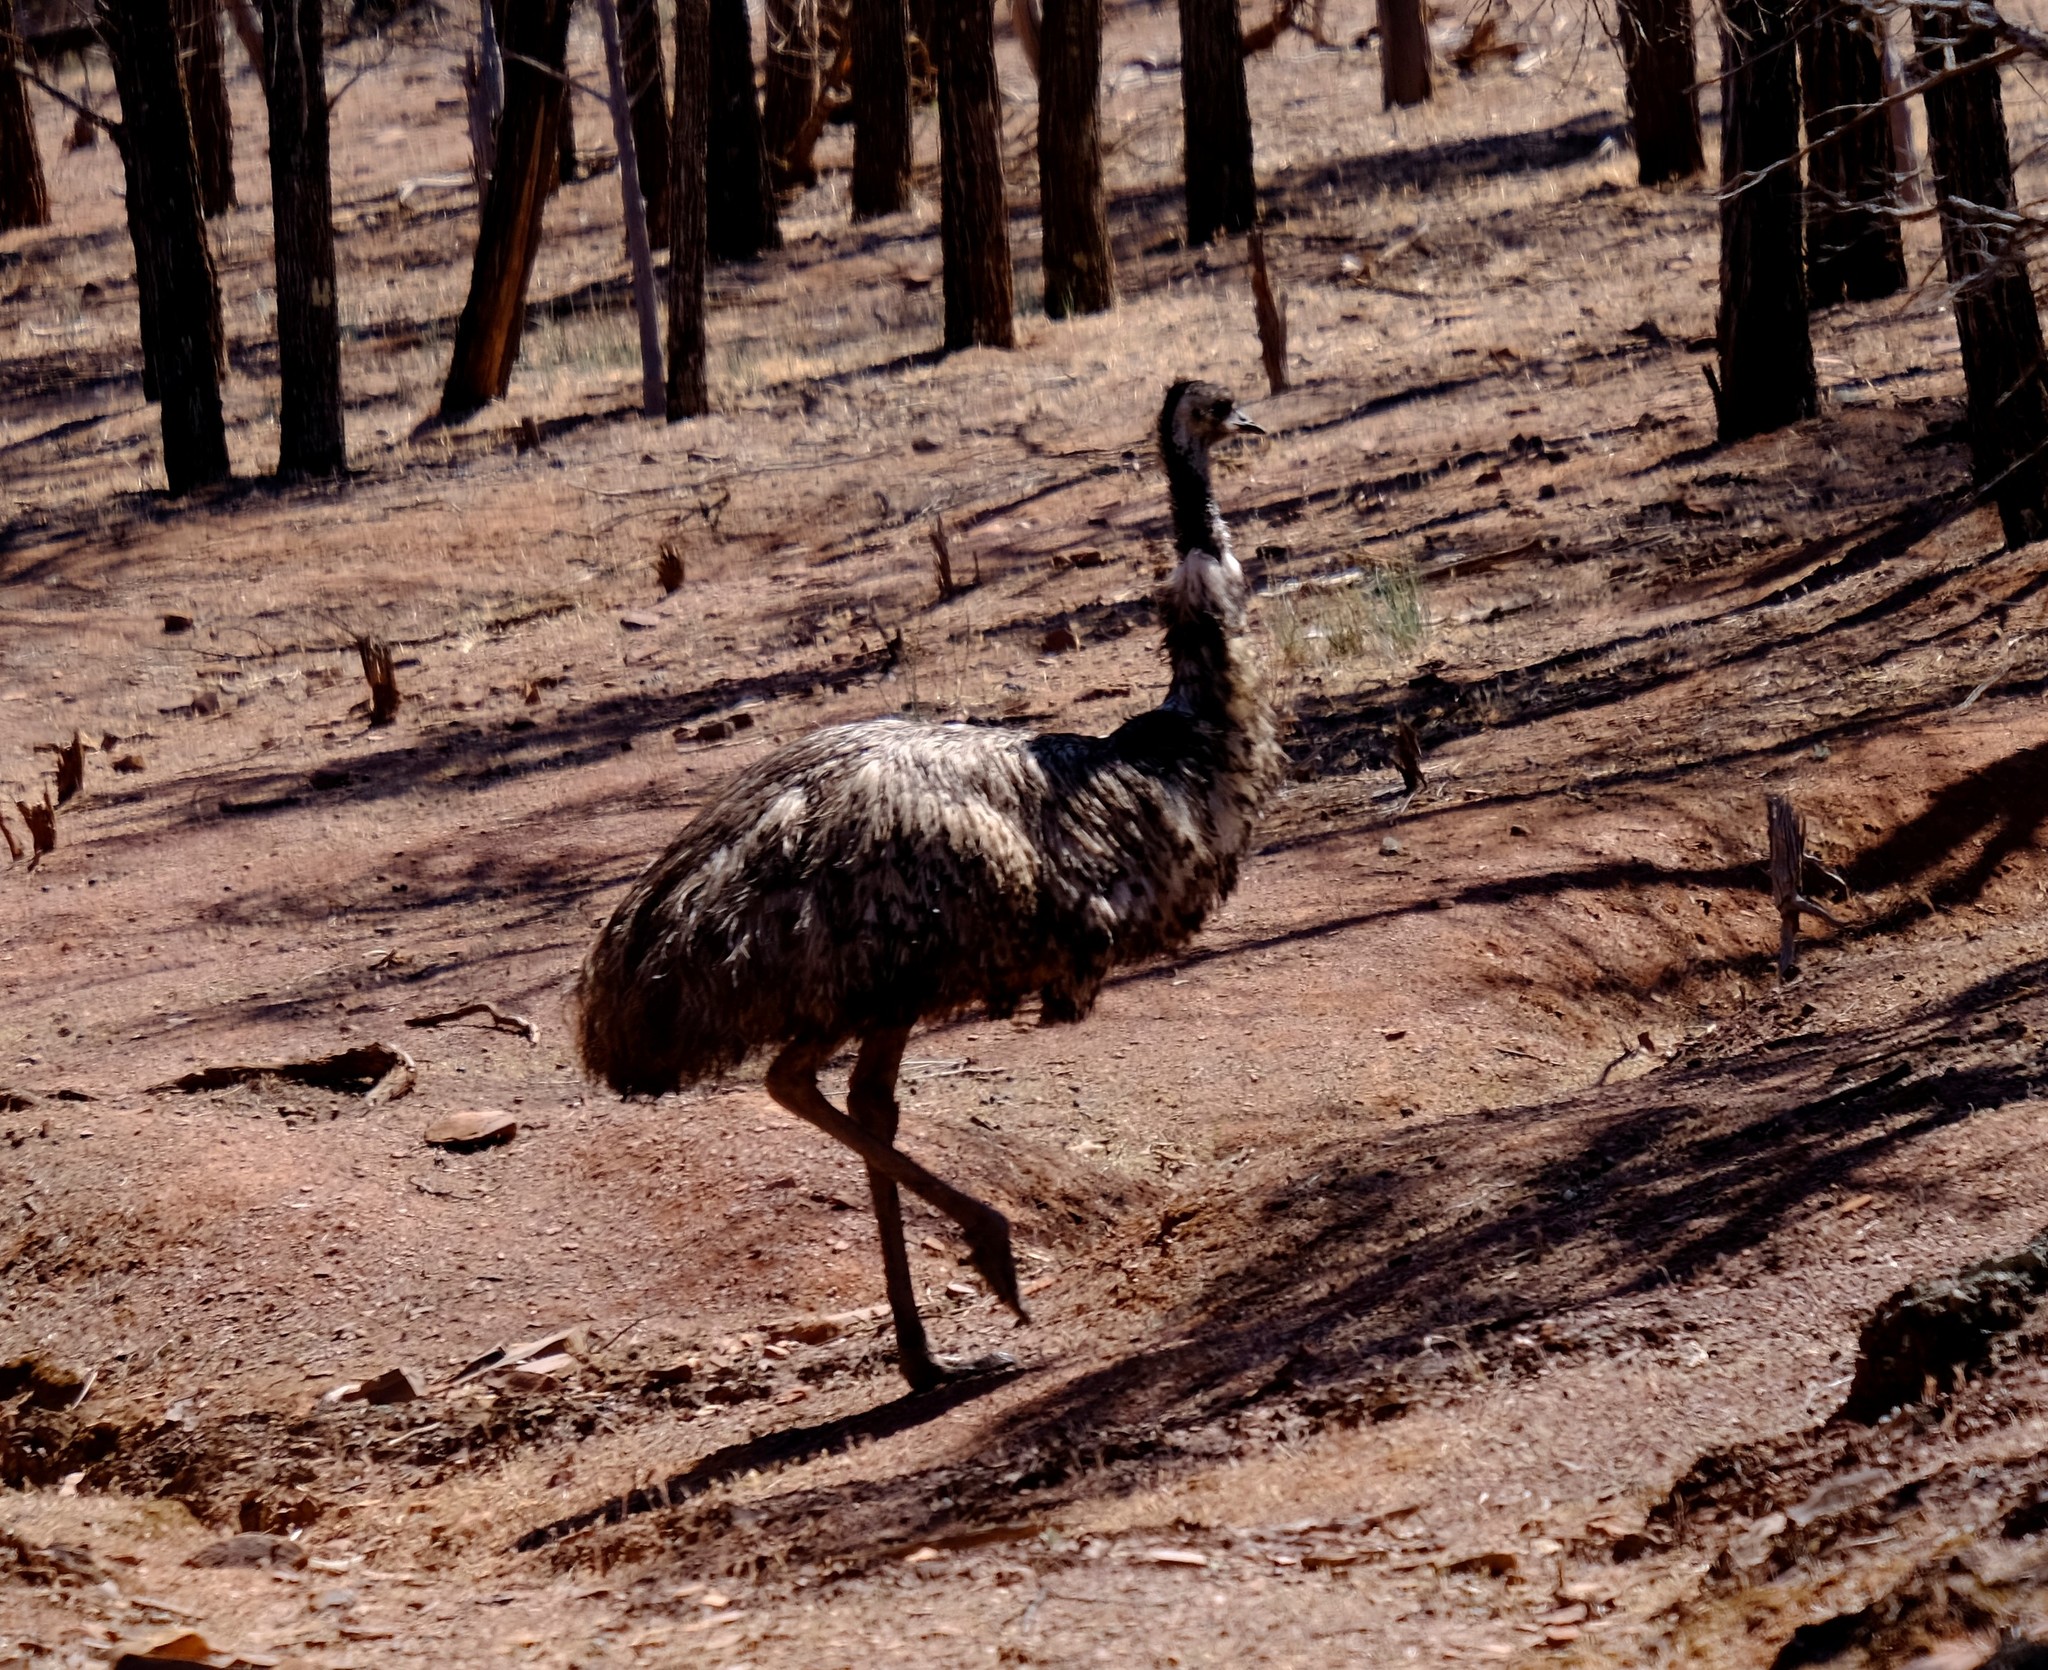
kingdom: Animalia
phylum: Chordata
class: Aves
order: Casuariiformes
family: Dromaiidae
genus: Dromaius
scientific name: Dromaius novaehollandiae
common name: Emu
